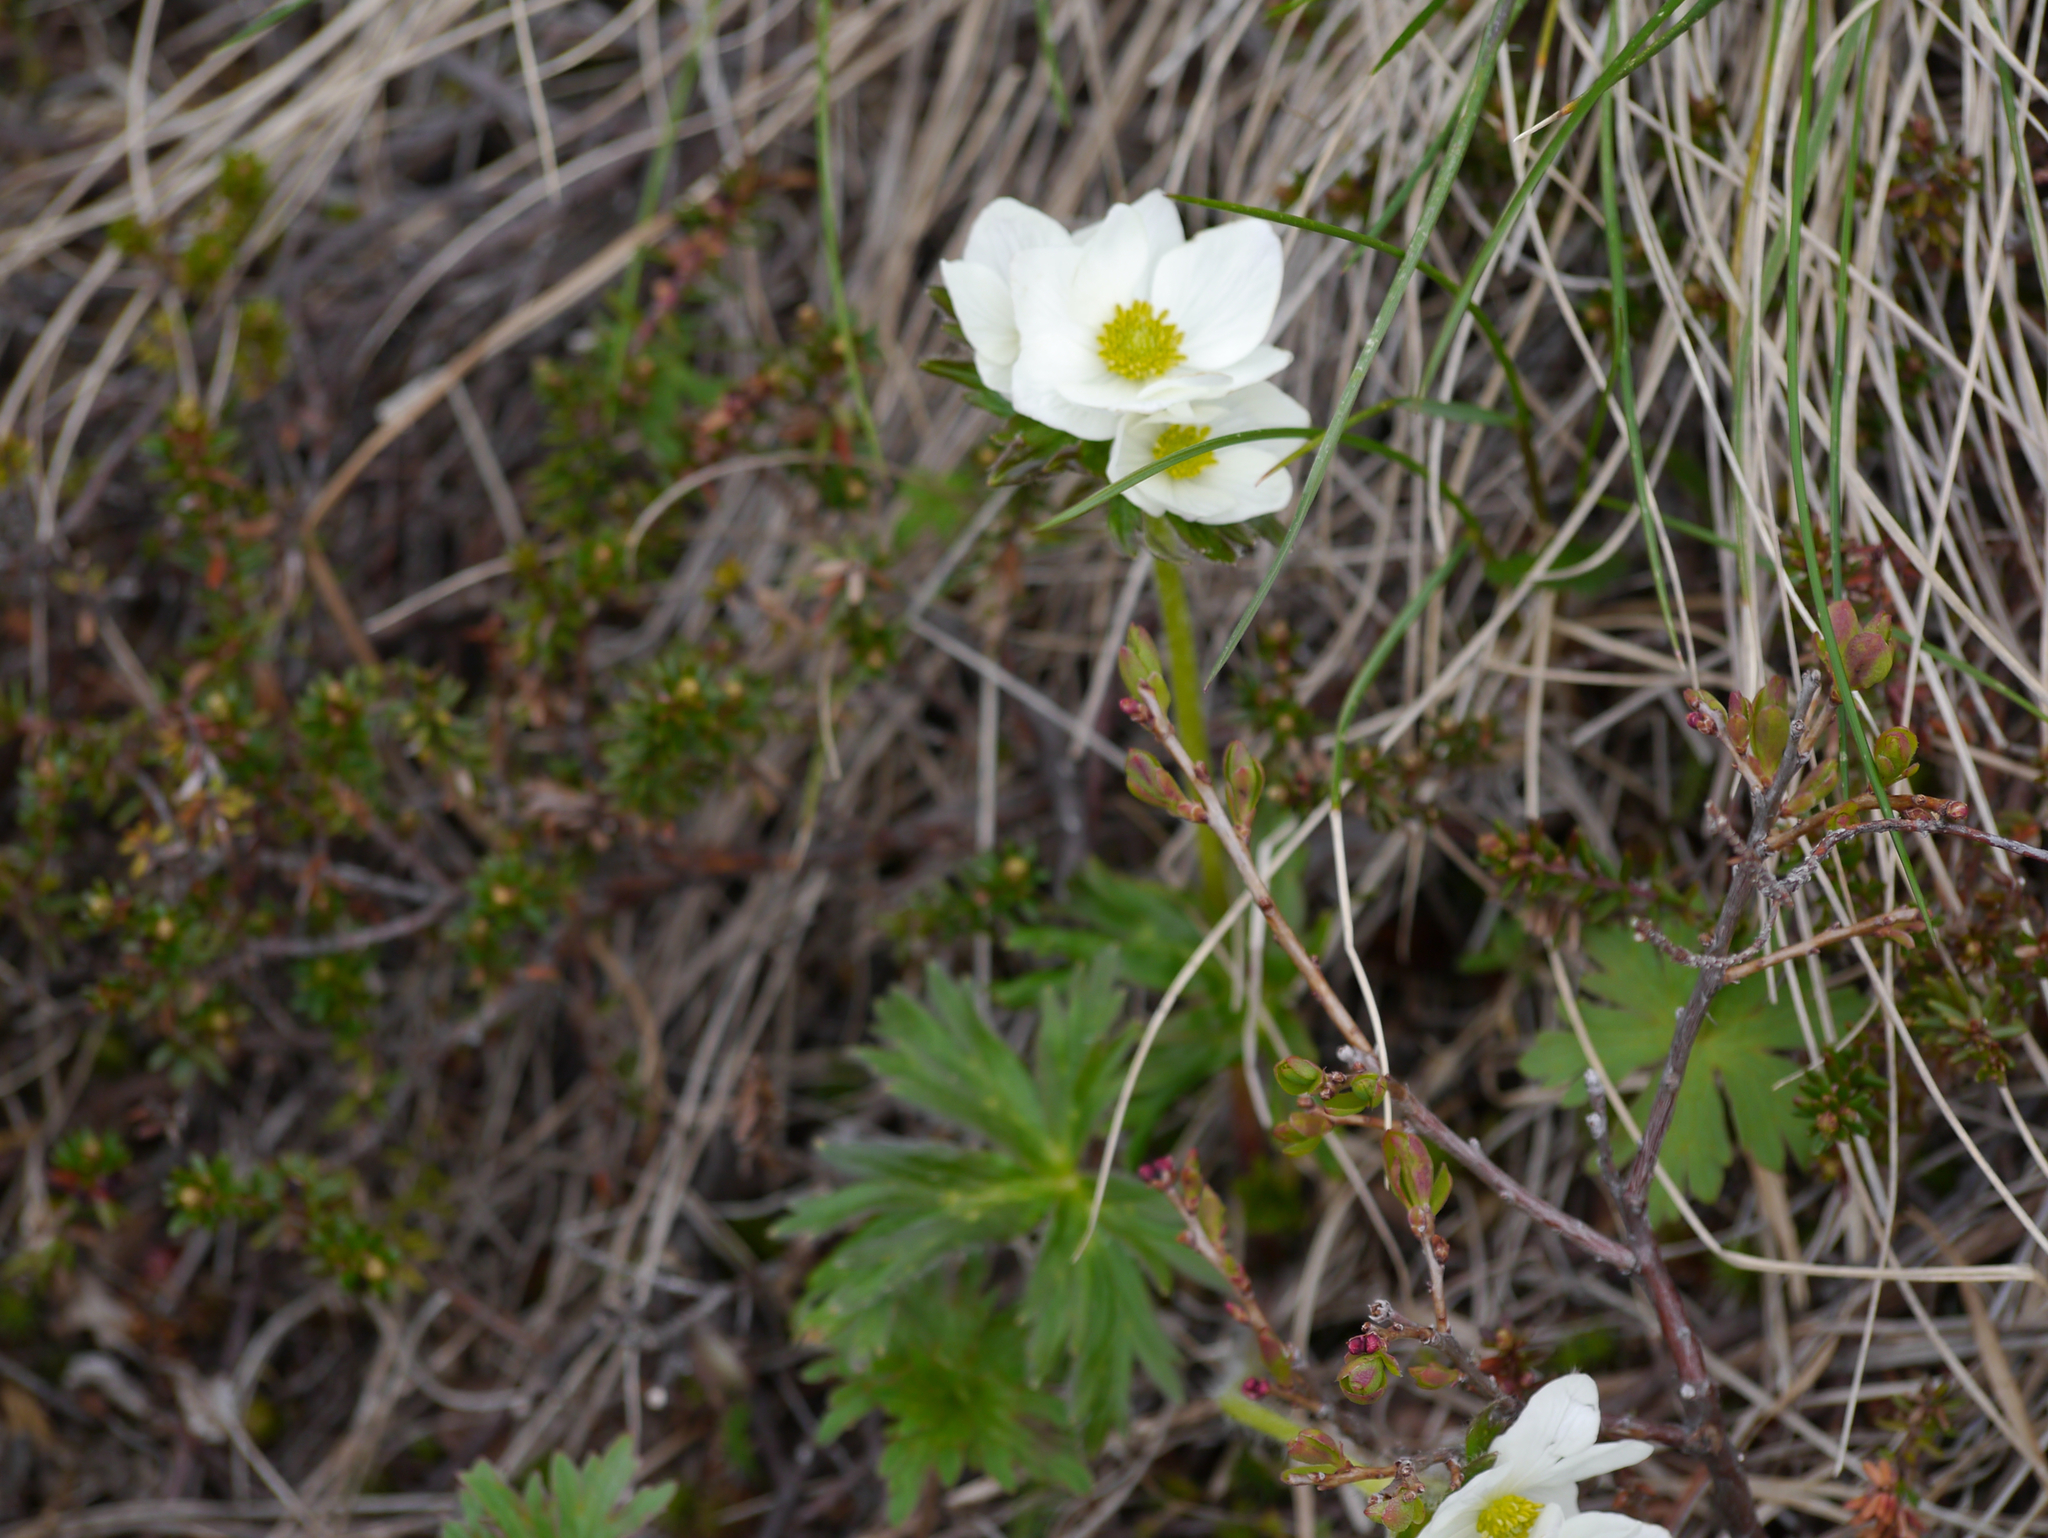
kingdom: Plantae
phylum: Tracheophyta
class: Magnoliopsida
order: Ranunculales
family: Ranunculaceae
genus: Anemonastrum
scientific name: Anemonastrum narcissiflorum
